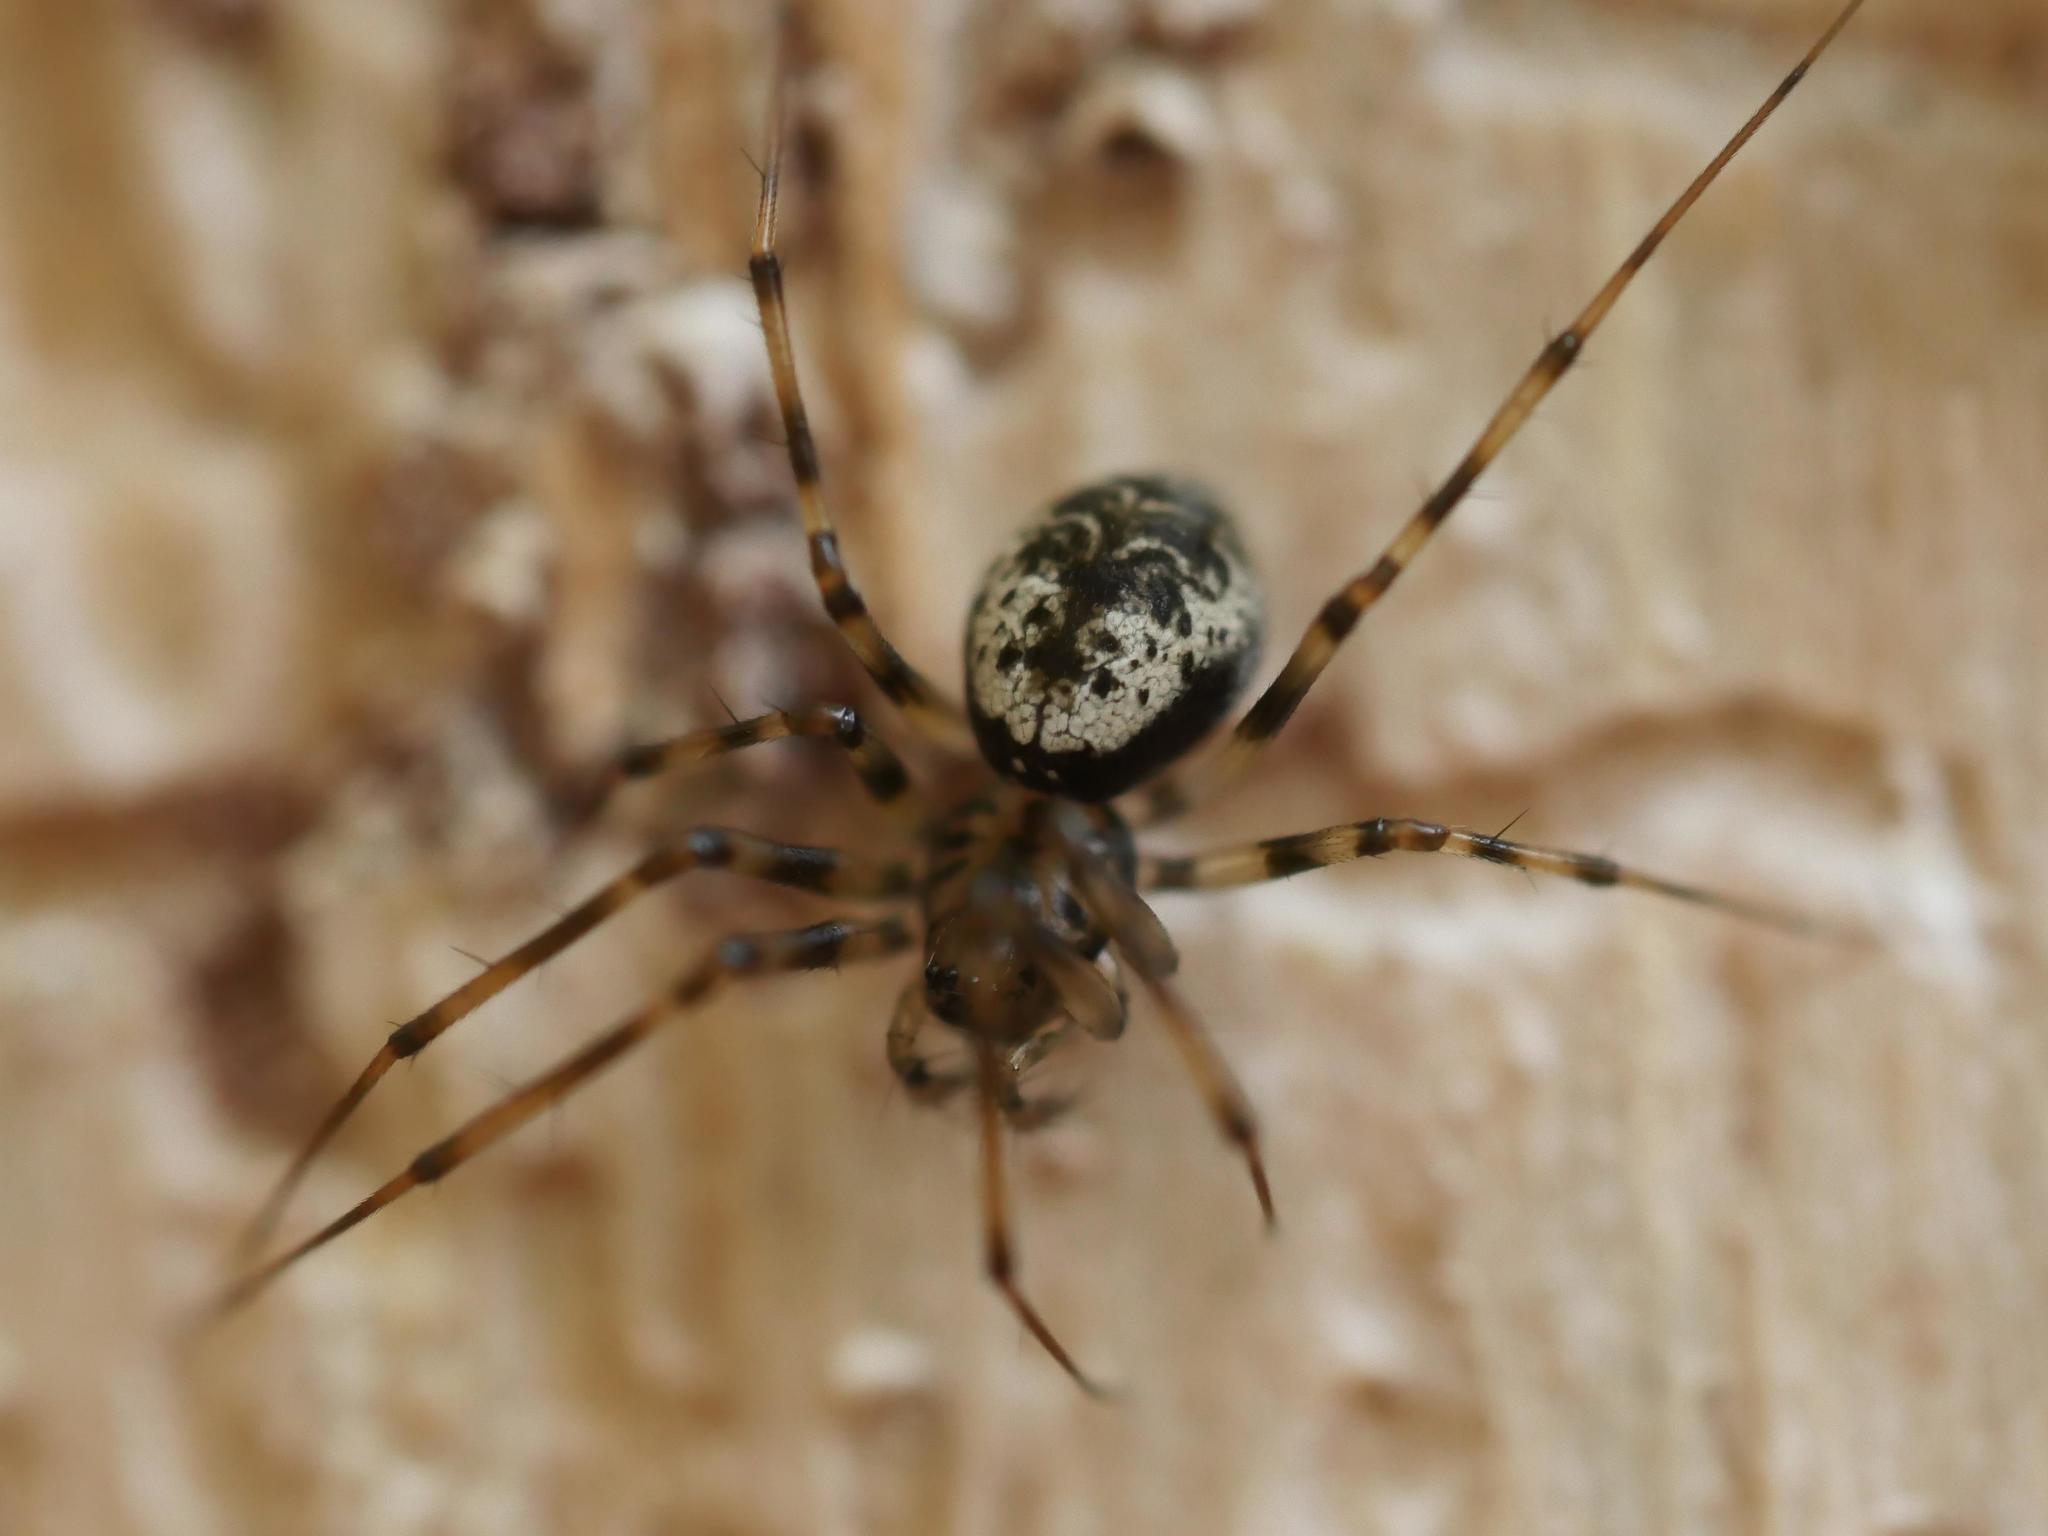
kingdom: Animalia
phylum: Arthropoda
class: Arachnida
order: Araneae
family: Linyphiidae
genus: Drapetisca
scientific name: Drapetisca alteranda
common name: Northern long-toothed sheetweaver
